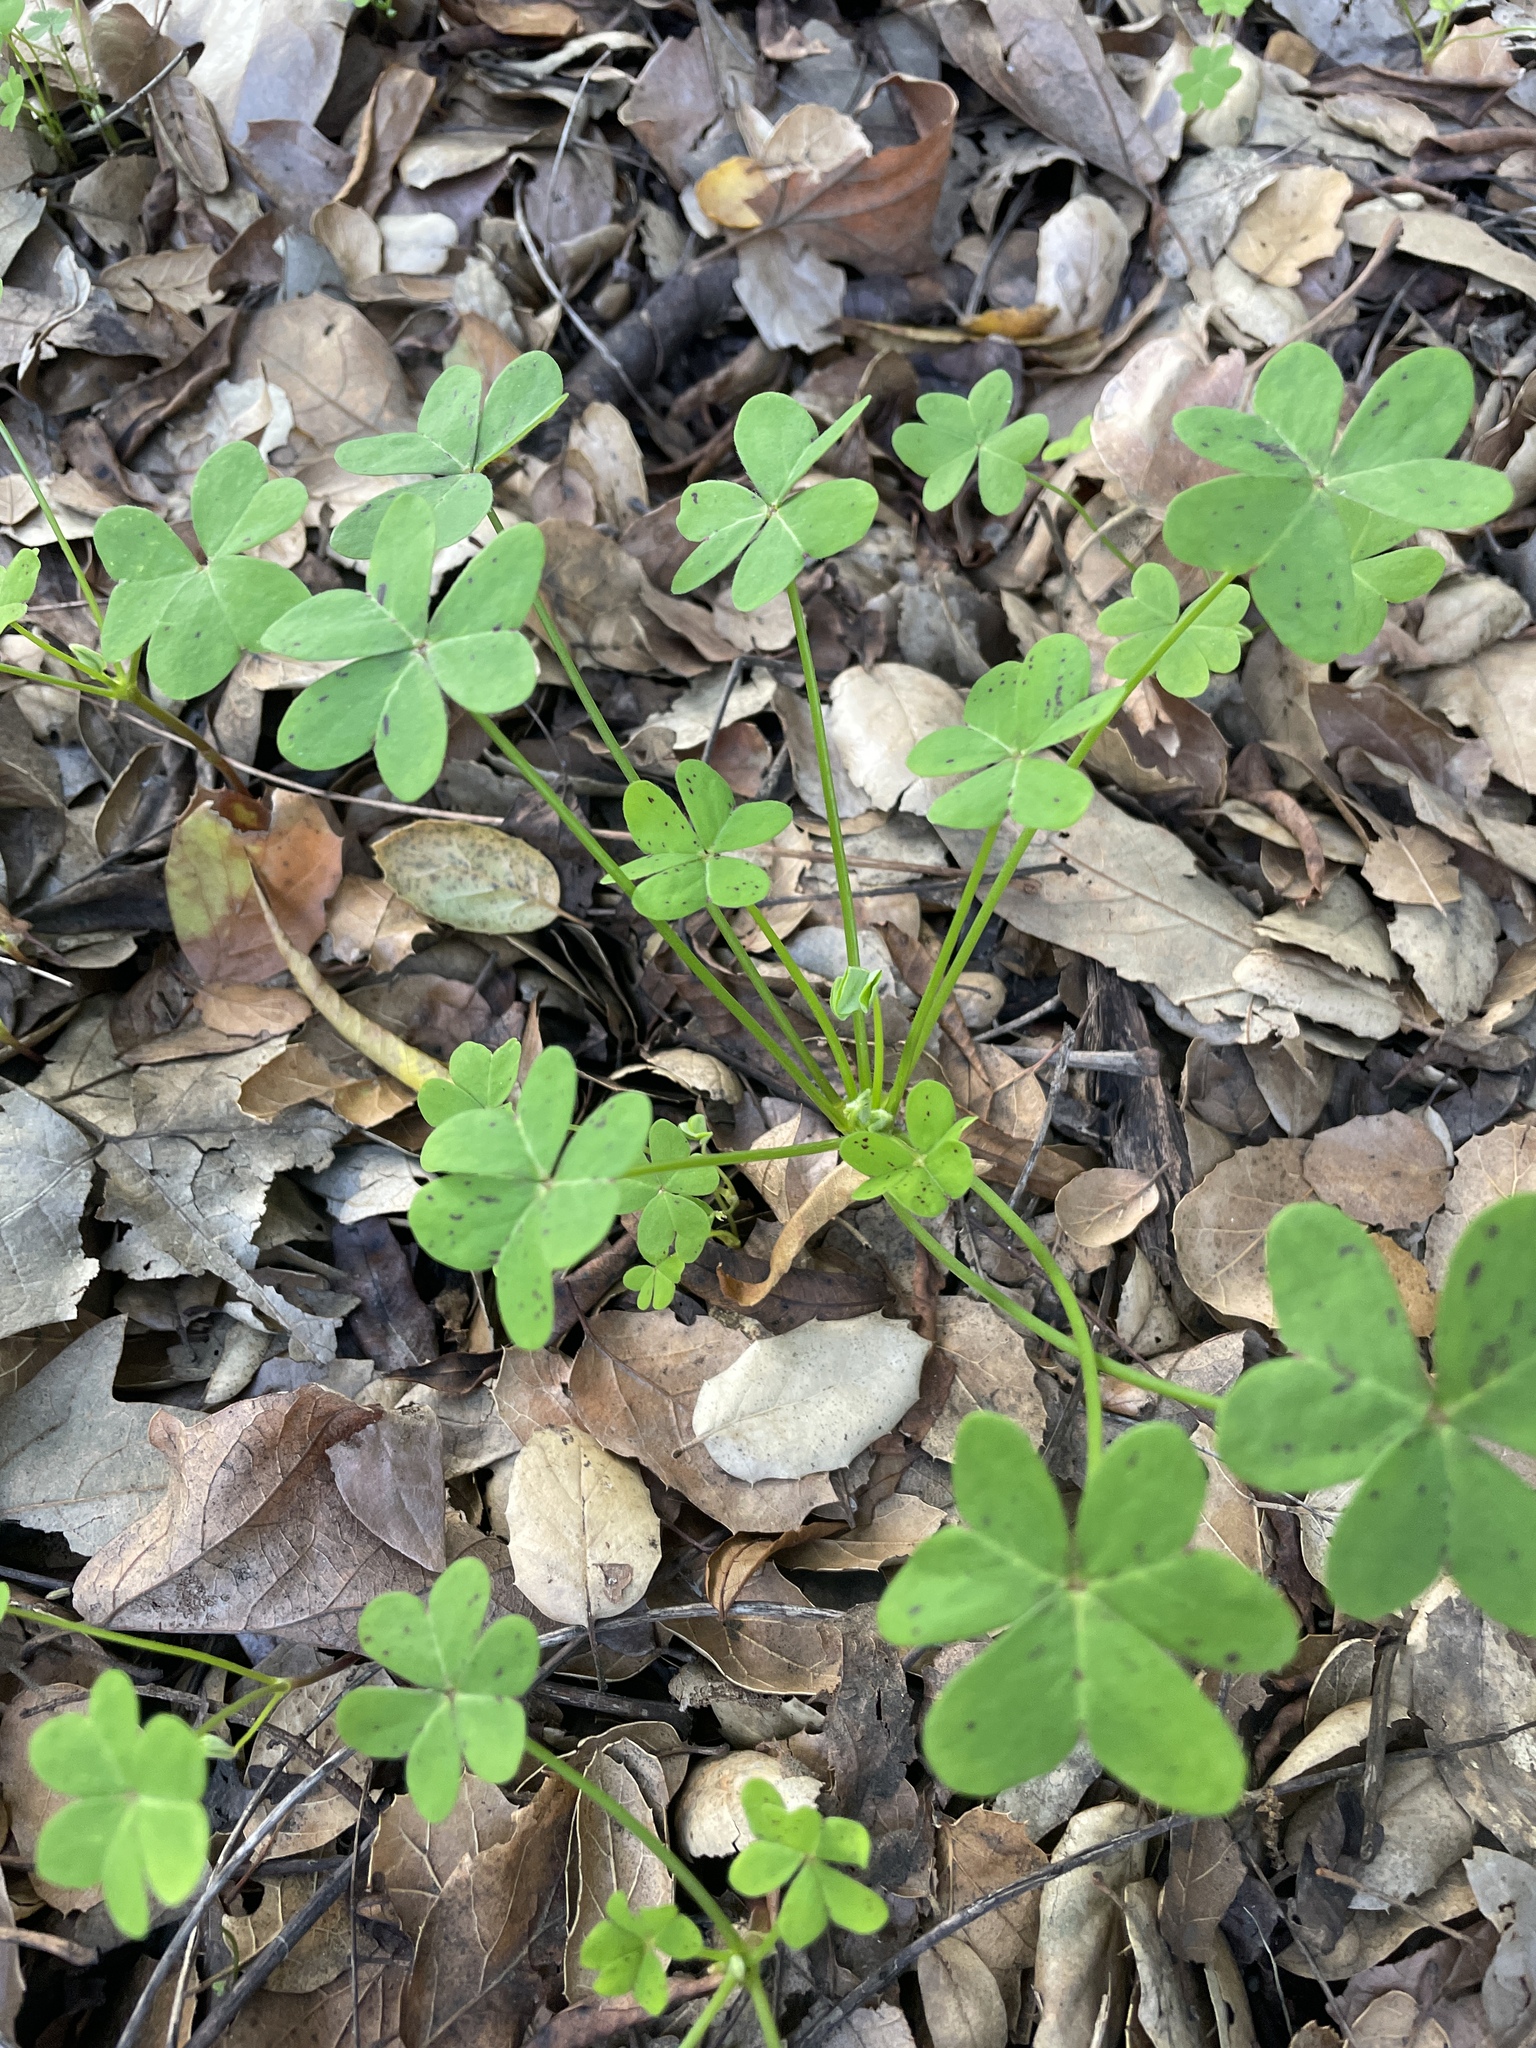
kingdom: Plantae
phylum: Tracheophyta
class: Magnoliopsida
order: Oxalidales
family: Oxalidaceae
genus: Oxalis
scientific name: Oxalis pes-caprae
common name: Bermuda-buttercup
